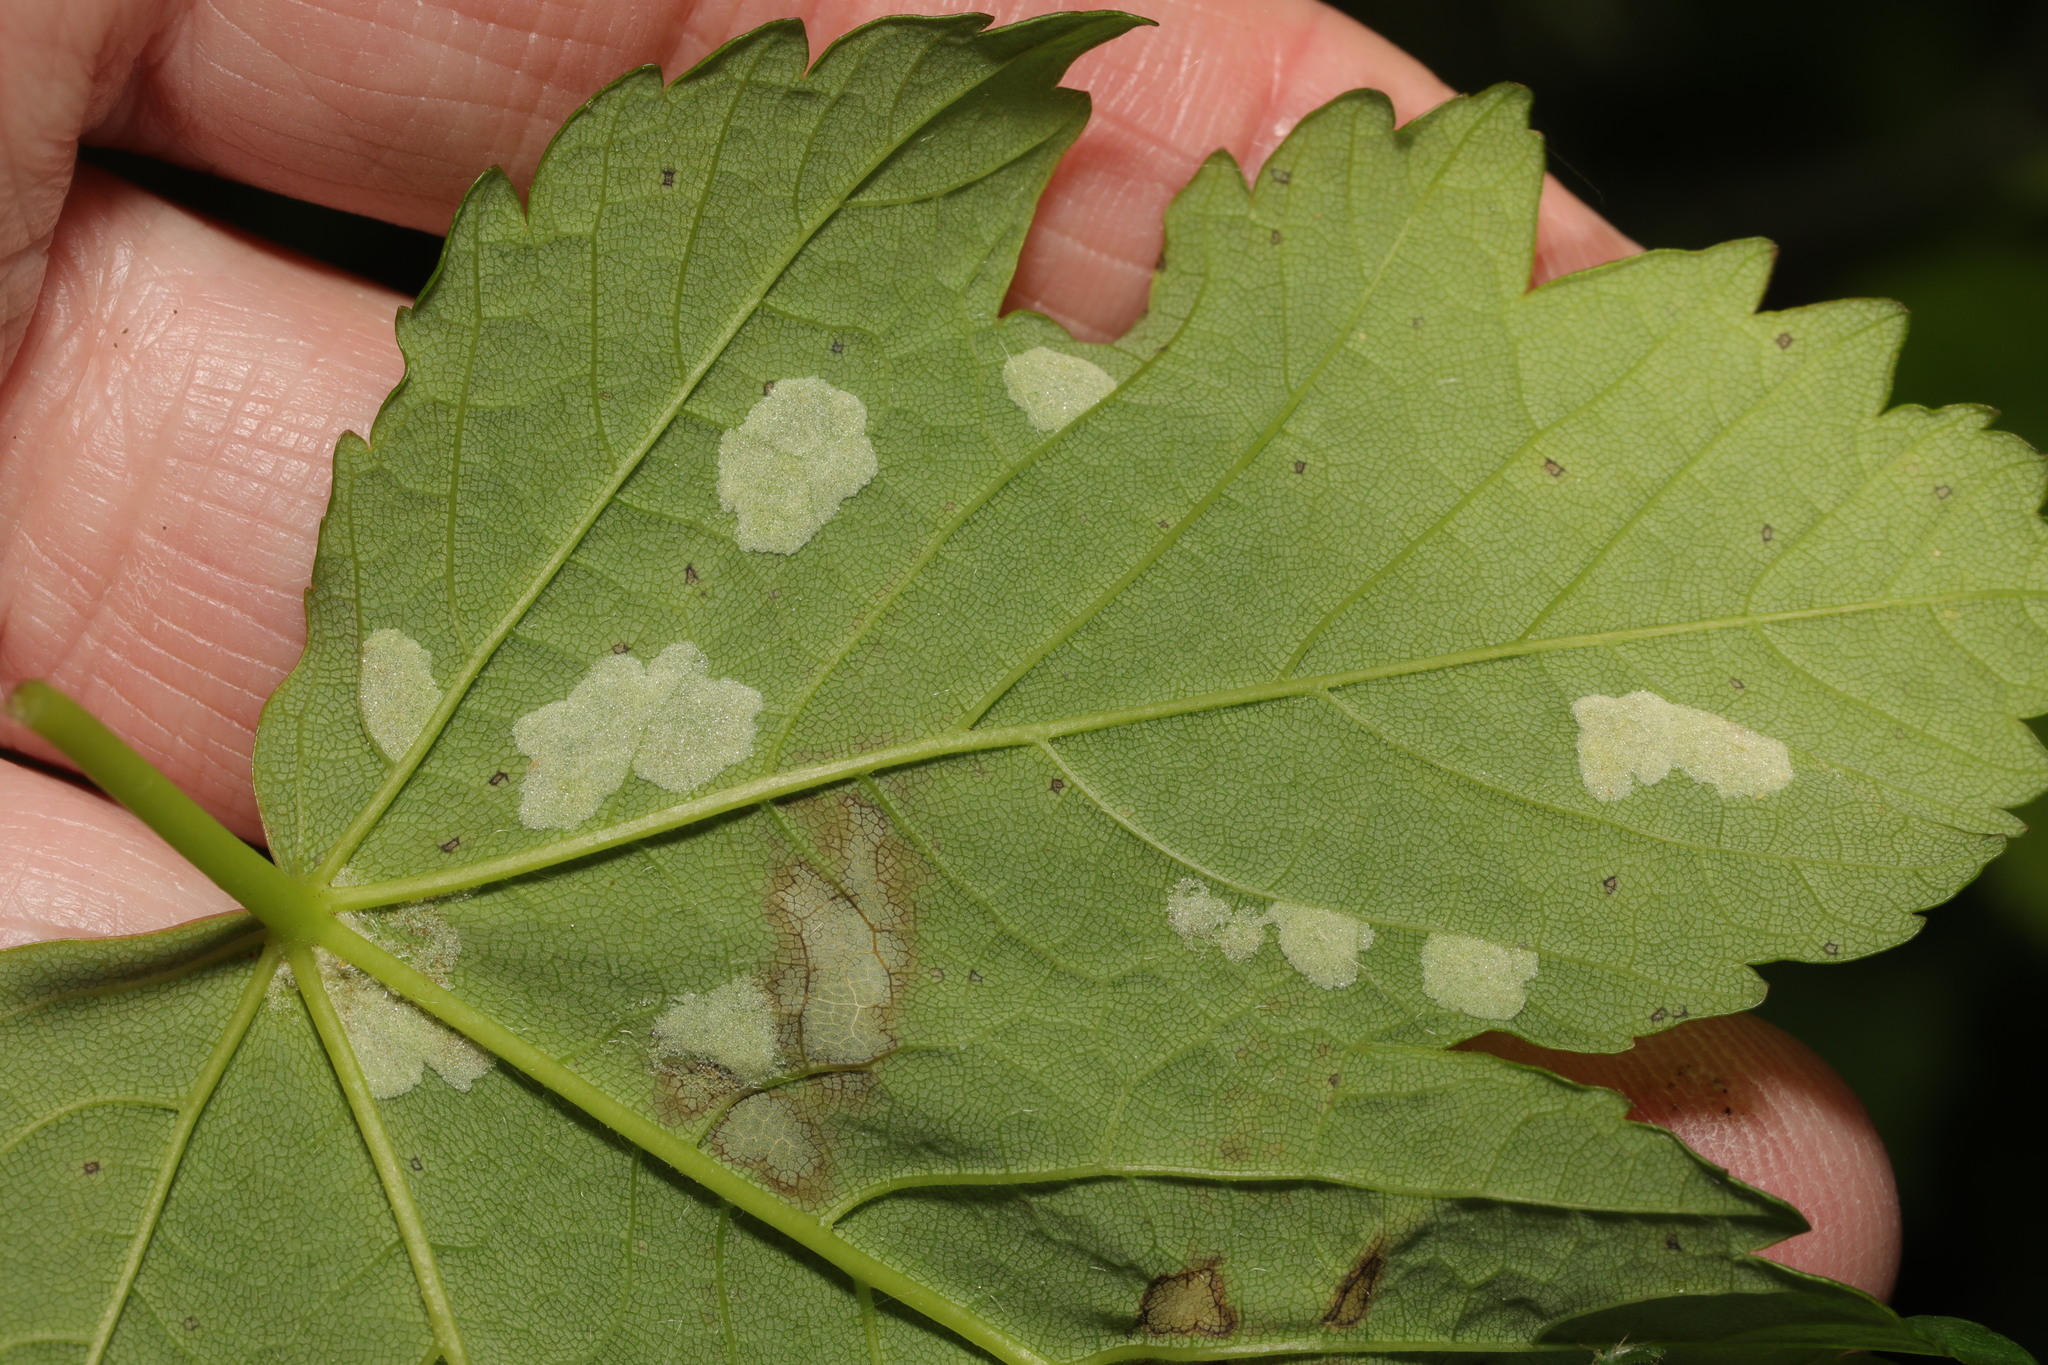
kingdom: Animalia
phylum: Arthropoda
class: Arachnida
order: Trombidiformes
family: Eriophyidae
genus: Aceria
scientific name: Aceria pseudoplatani
